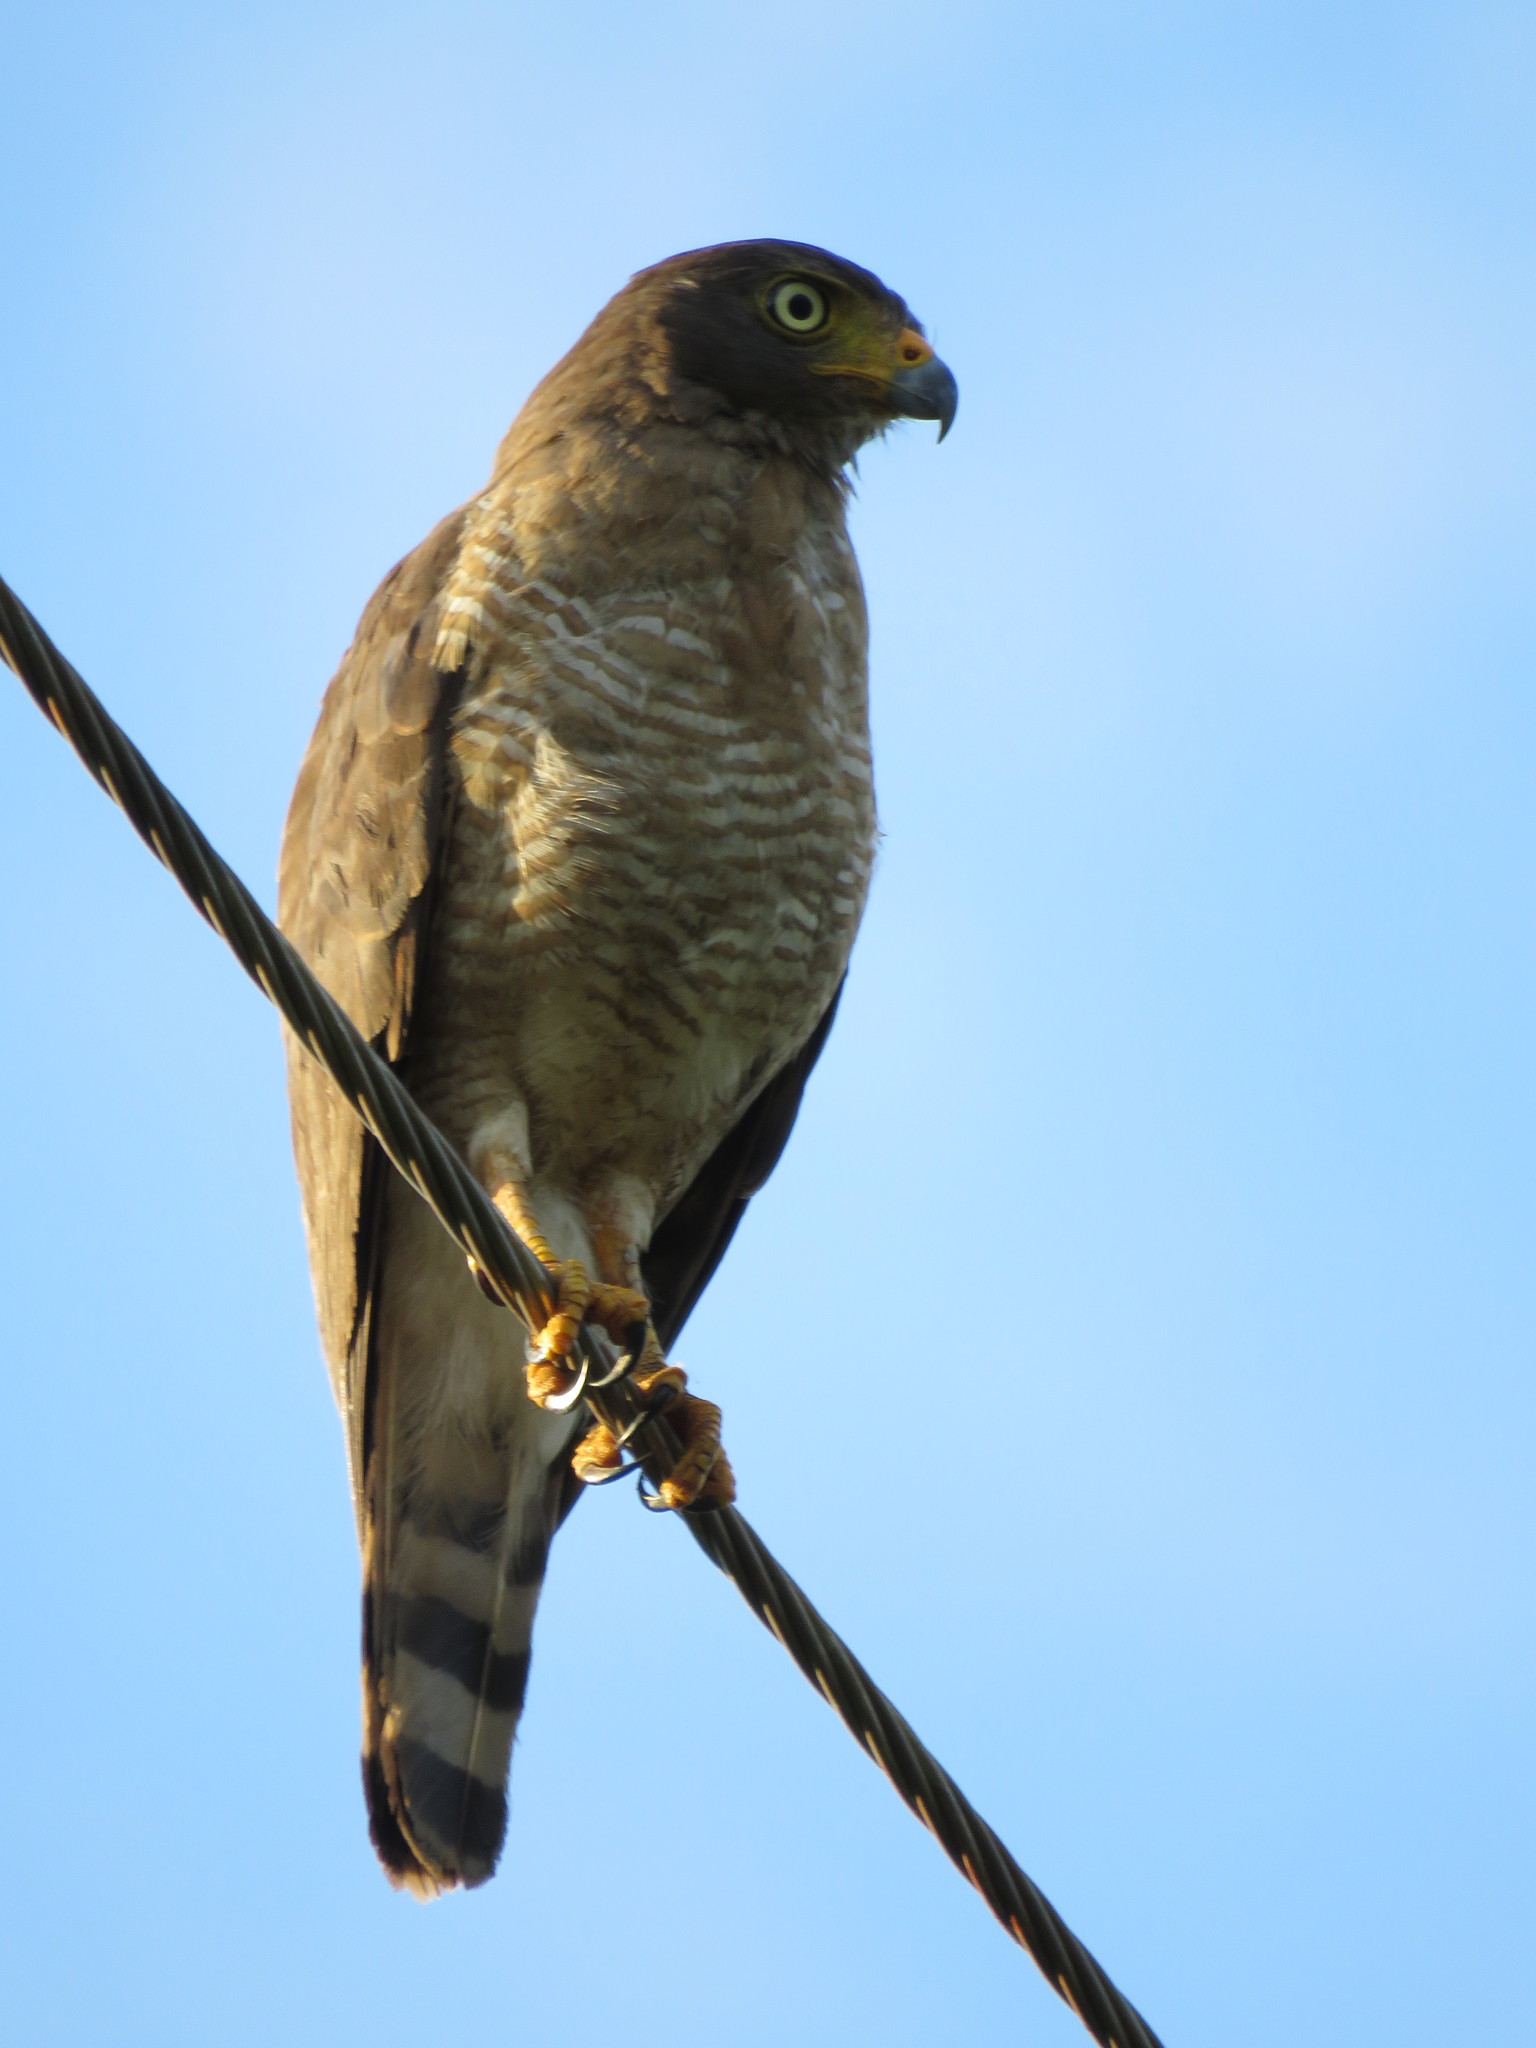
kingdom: Animalia
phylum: Chordata
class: Aves
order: Accipitriformes
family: Accipitridae
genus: Rupornis
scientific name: Rupornis magnirostris
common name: Roadside hawk
